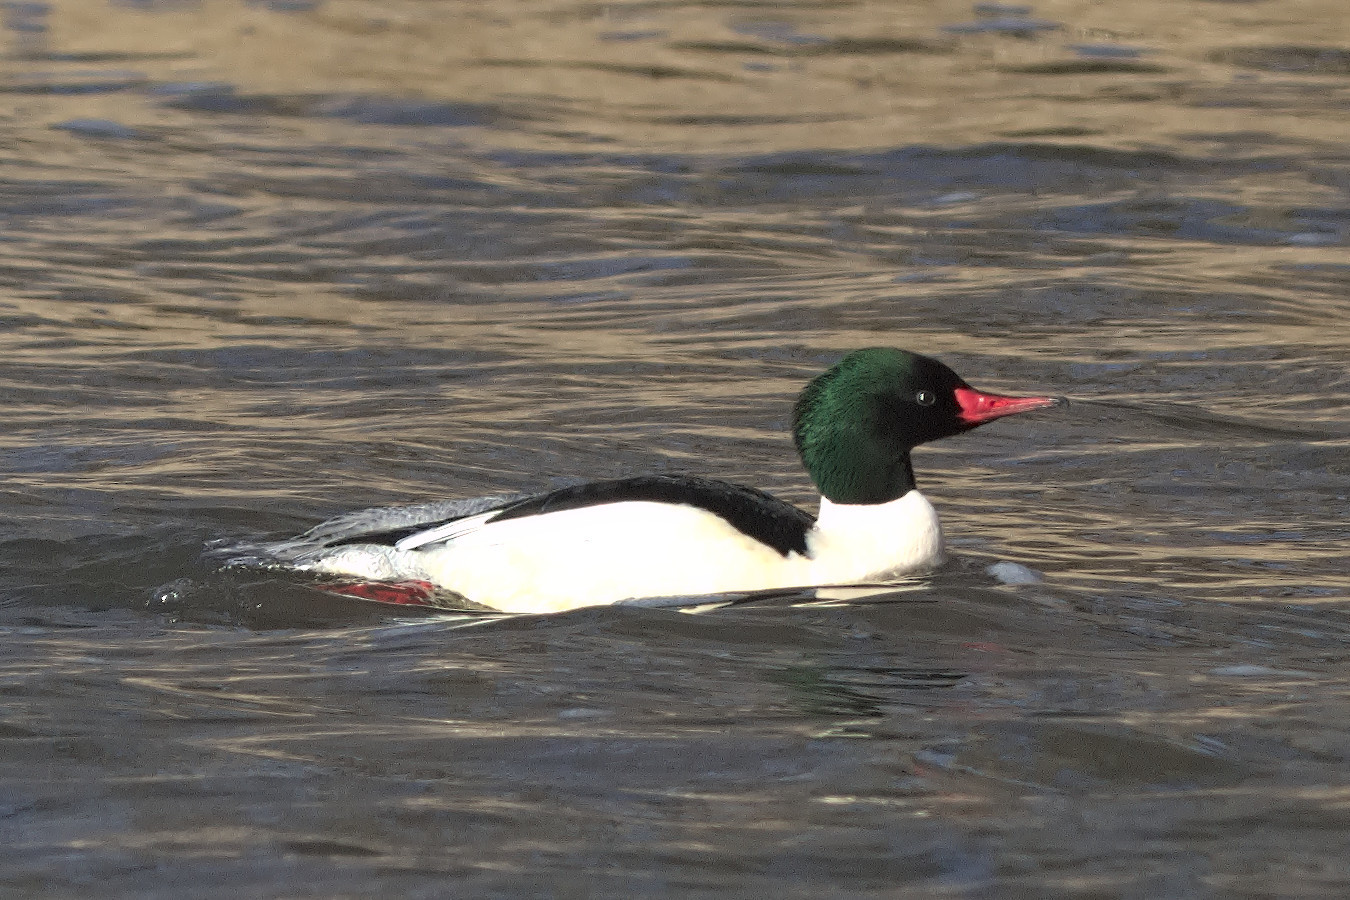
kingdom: Animalia
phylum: Chordata
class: Aves
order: Anseriformes
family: Anatidae
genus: Mergus
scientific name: Mergus merganser
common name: Common merganser
